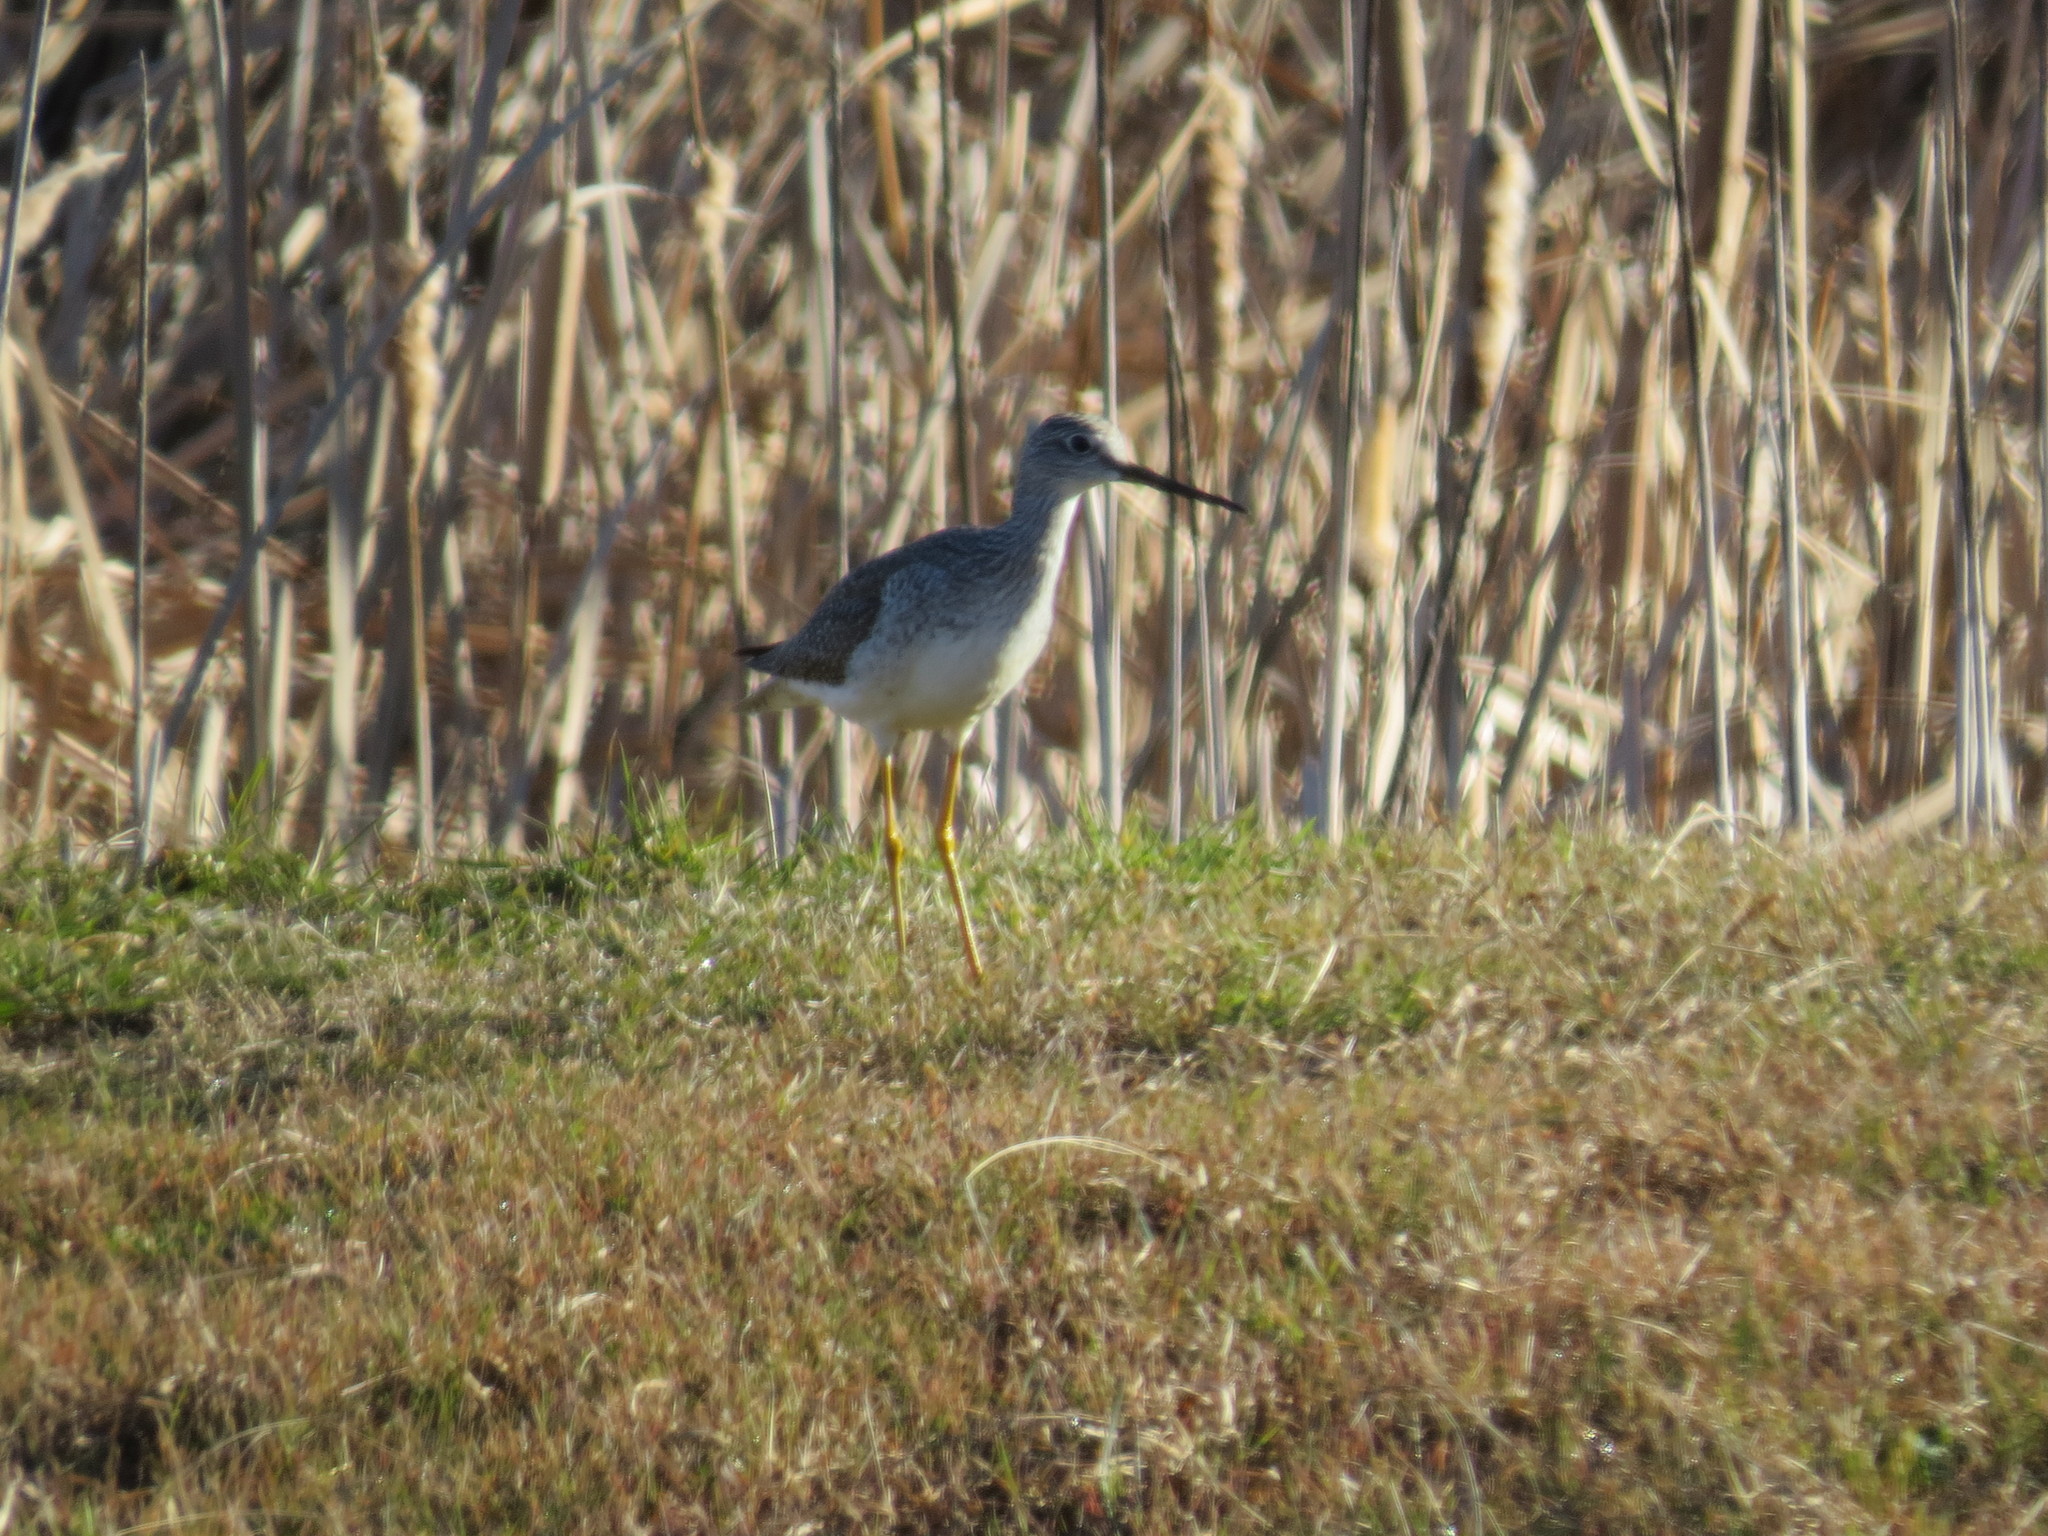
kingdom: Animalia
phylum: Chordata
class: Aves
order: Charadriiformes
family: Scolopacidae
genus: Tringa
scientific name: Tringa melanoleuca
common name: Greater yellowlegs
